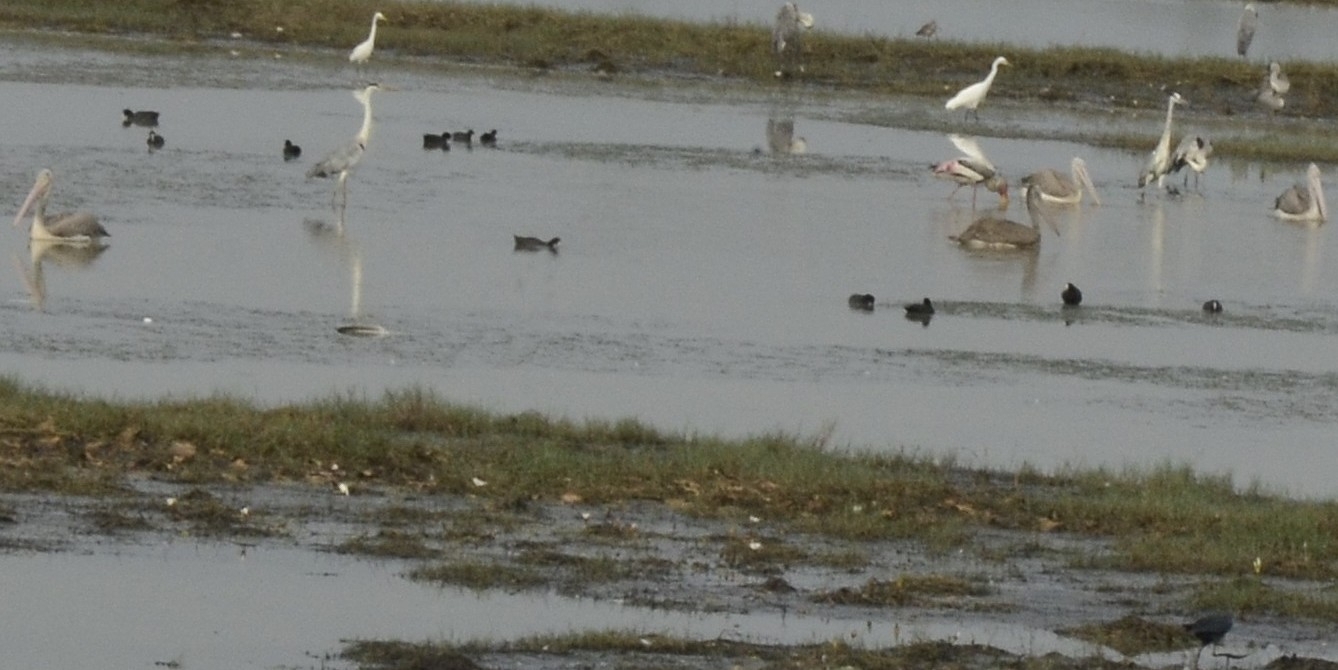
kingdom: Animalia
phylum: Chordata
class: Aves
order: Pelecaniformes
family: Pelecanidae
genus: Pelecanus
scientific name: Pelecanus philippensis
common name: Spot-billed pelican
